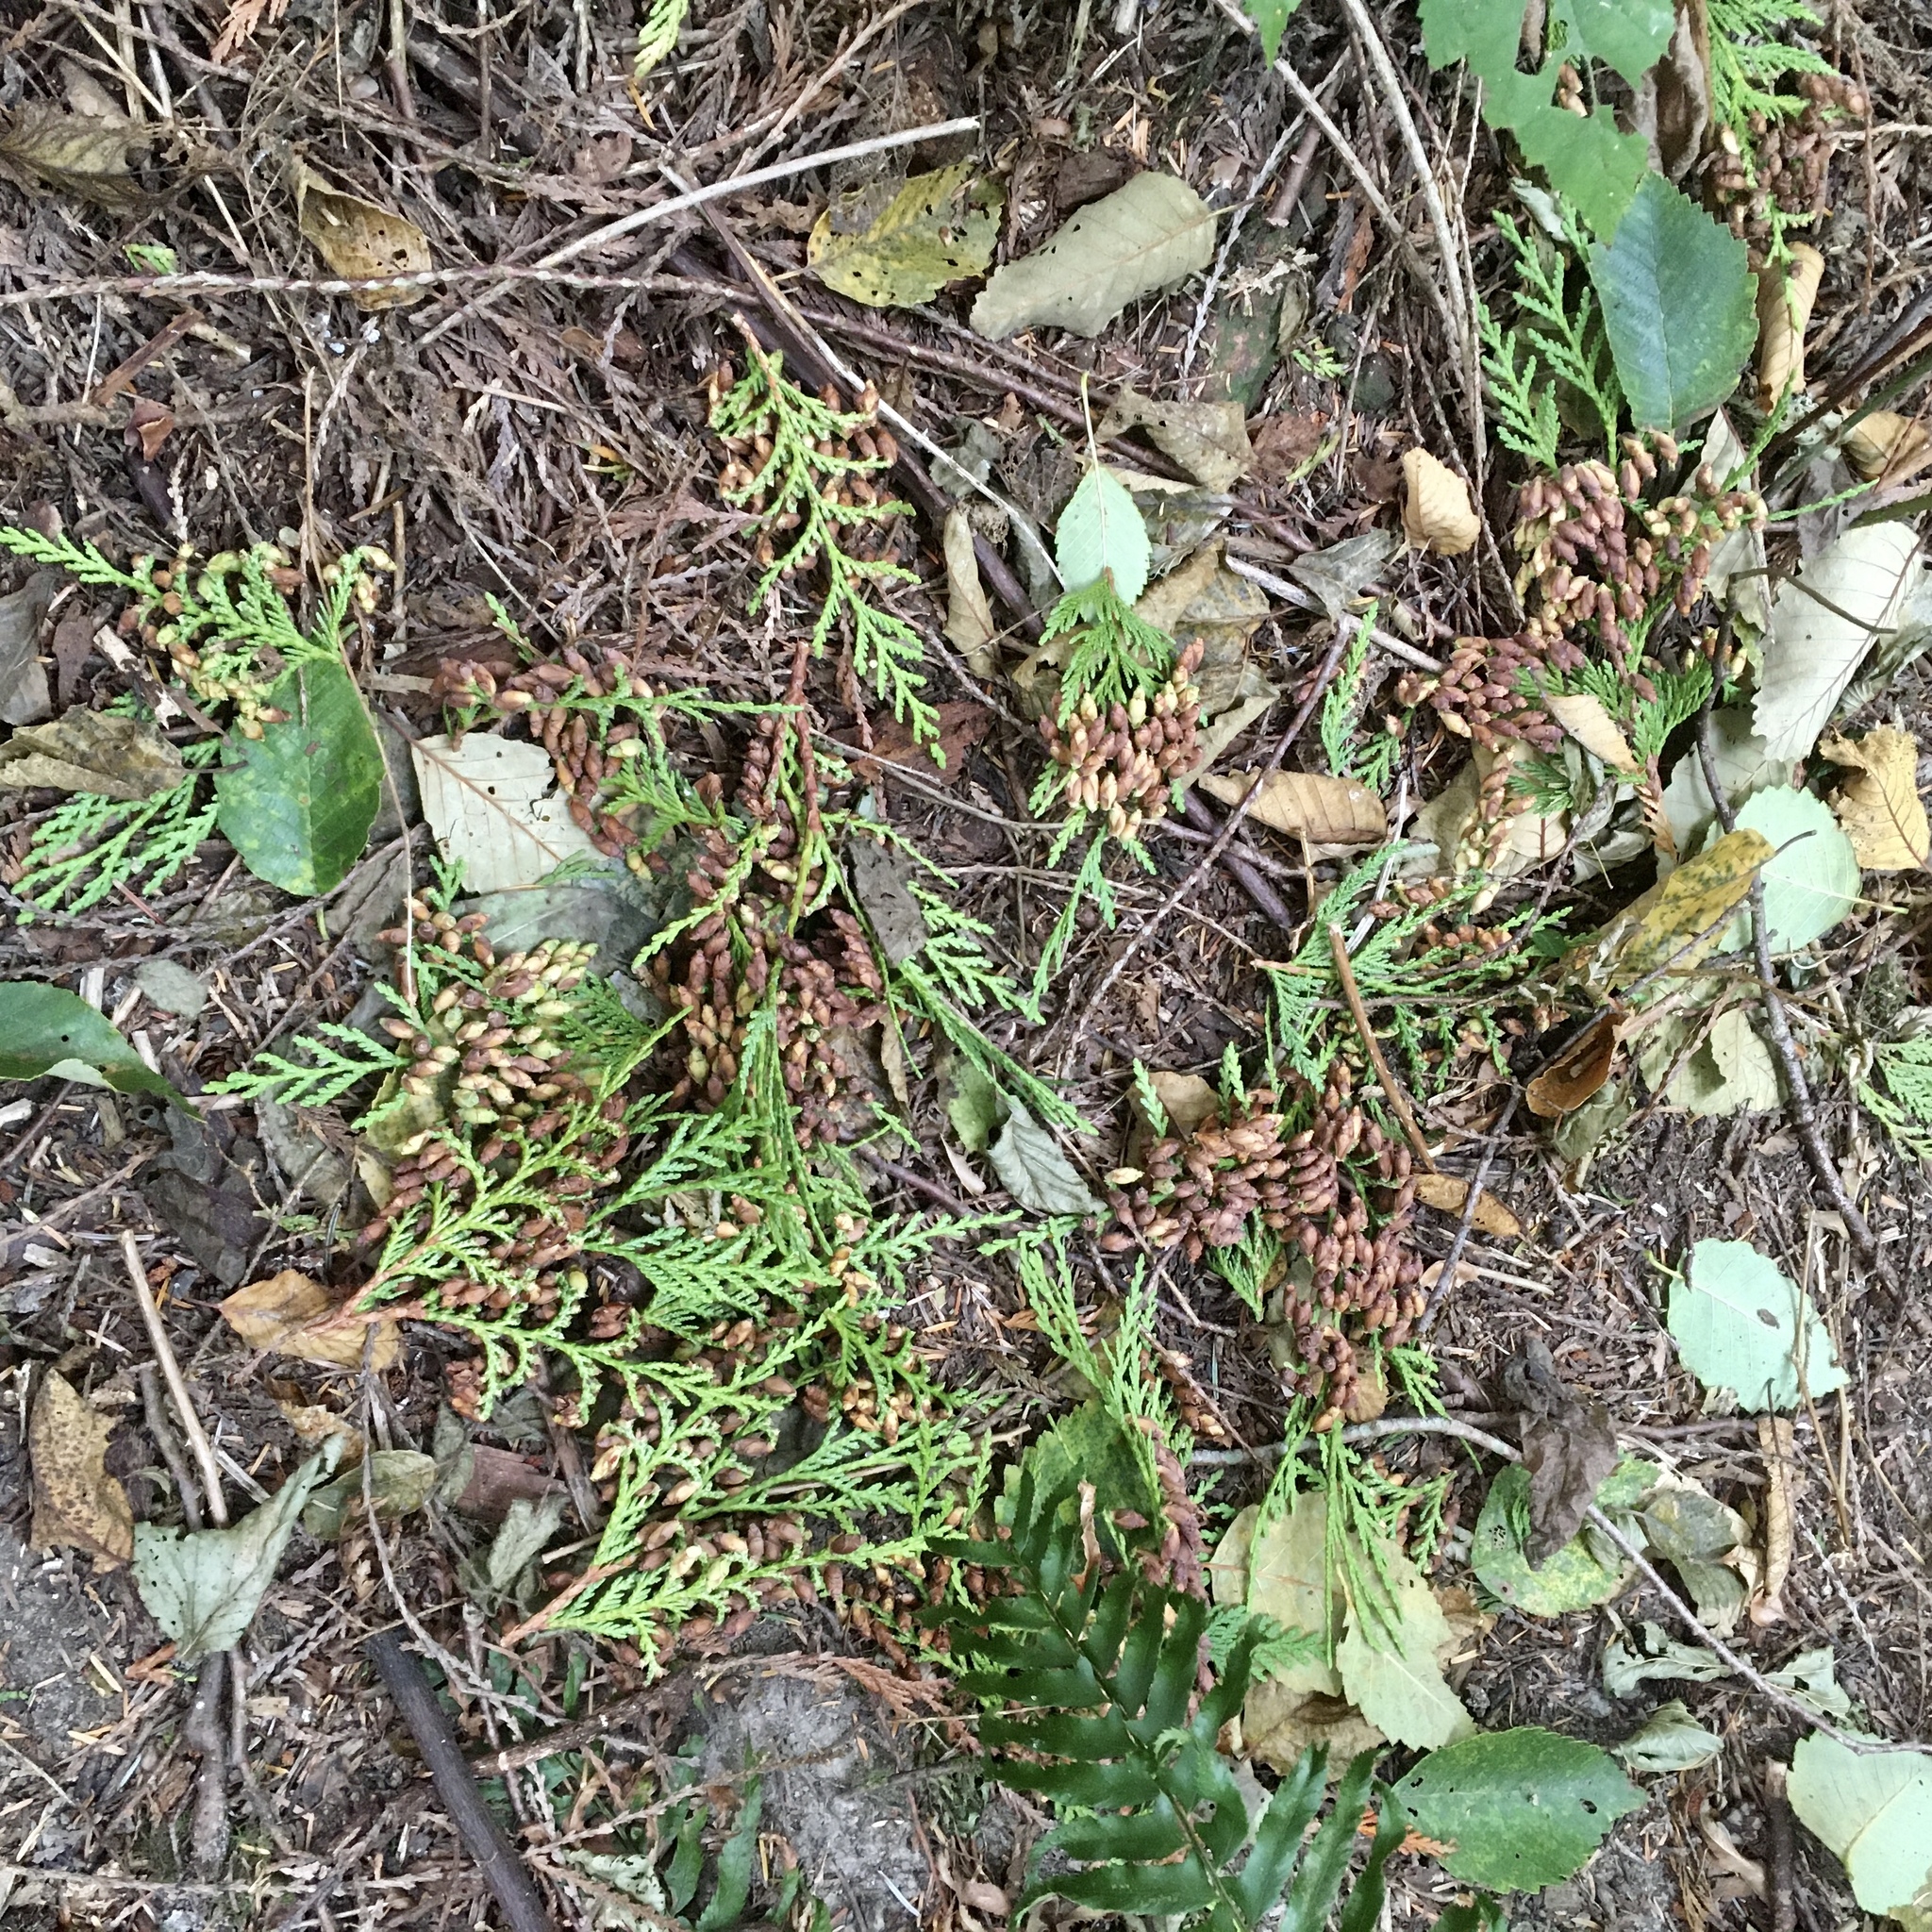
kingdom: Plantae
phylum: Tracheophyta
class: Pinopsida
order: Pinales
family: Cupressaceae
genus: Thuja
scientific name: Thuja plicata
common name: Western red-cedar
